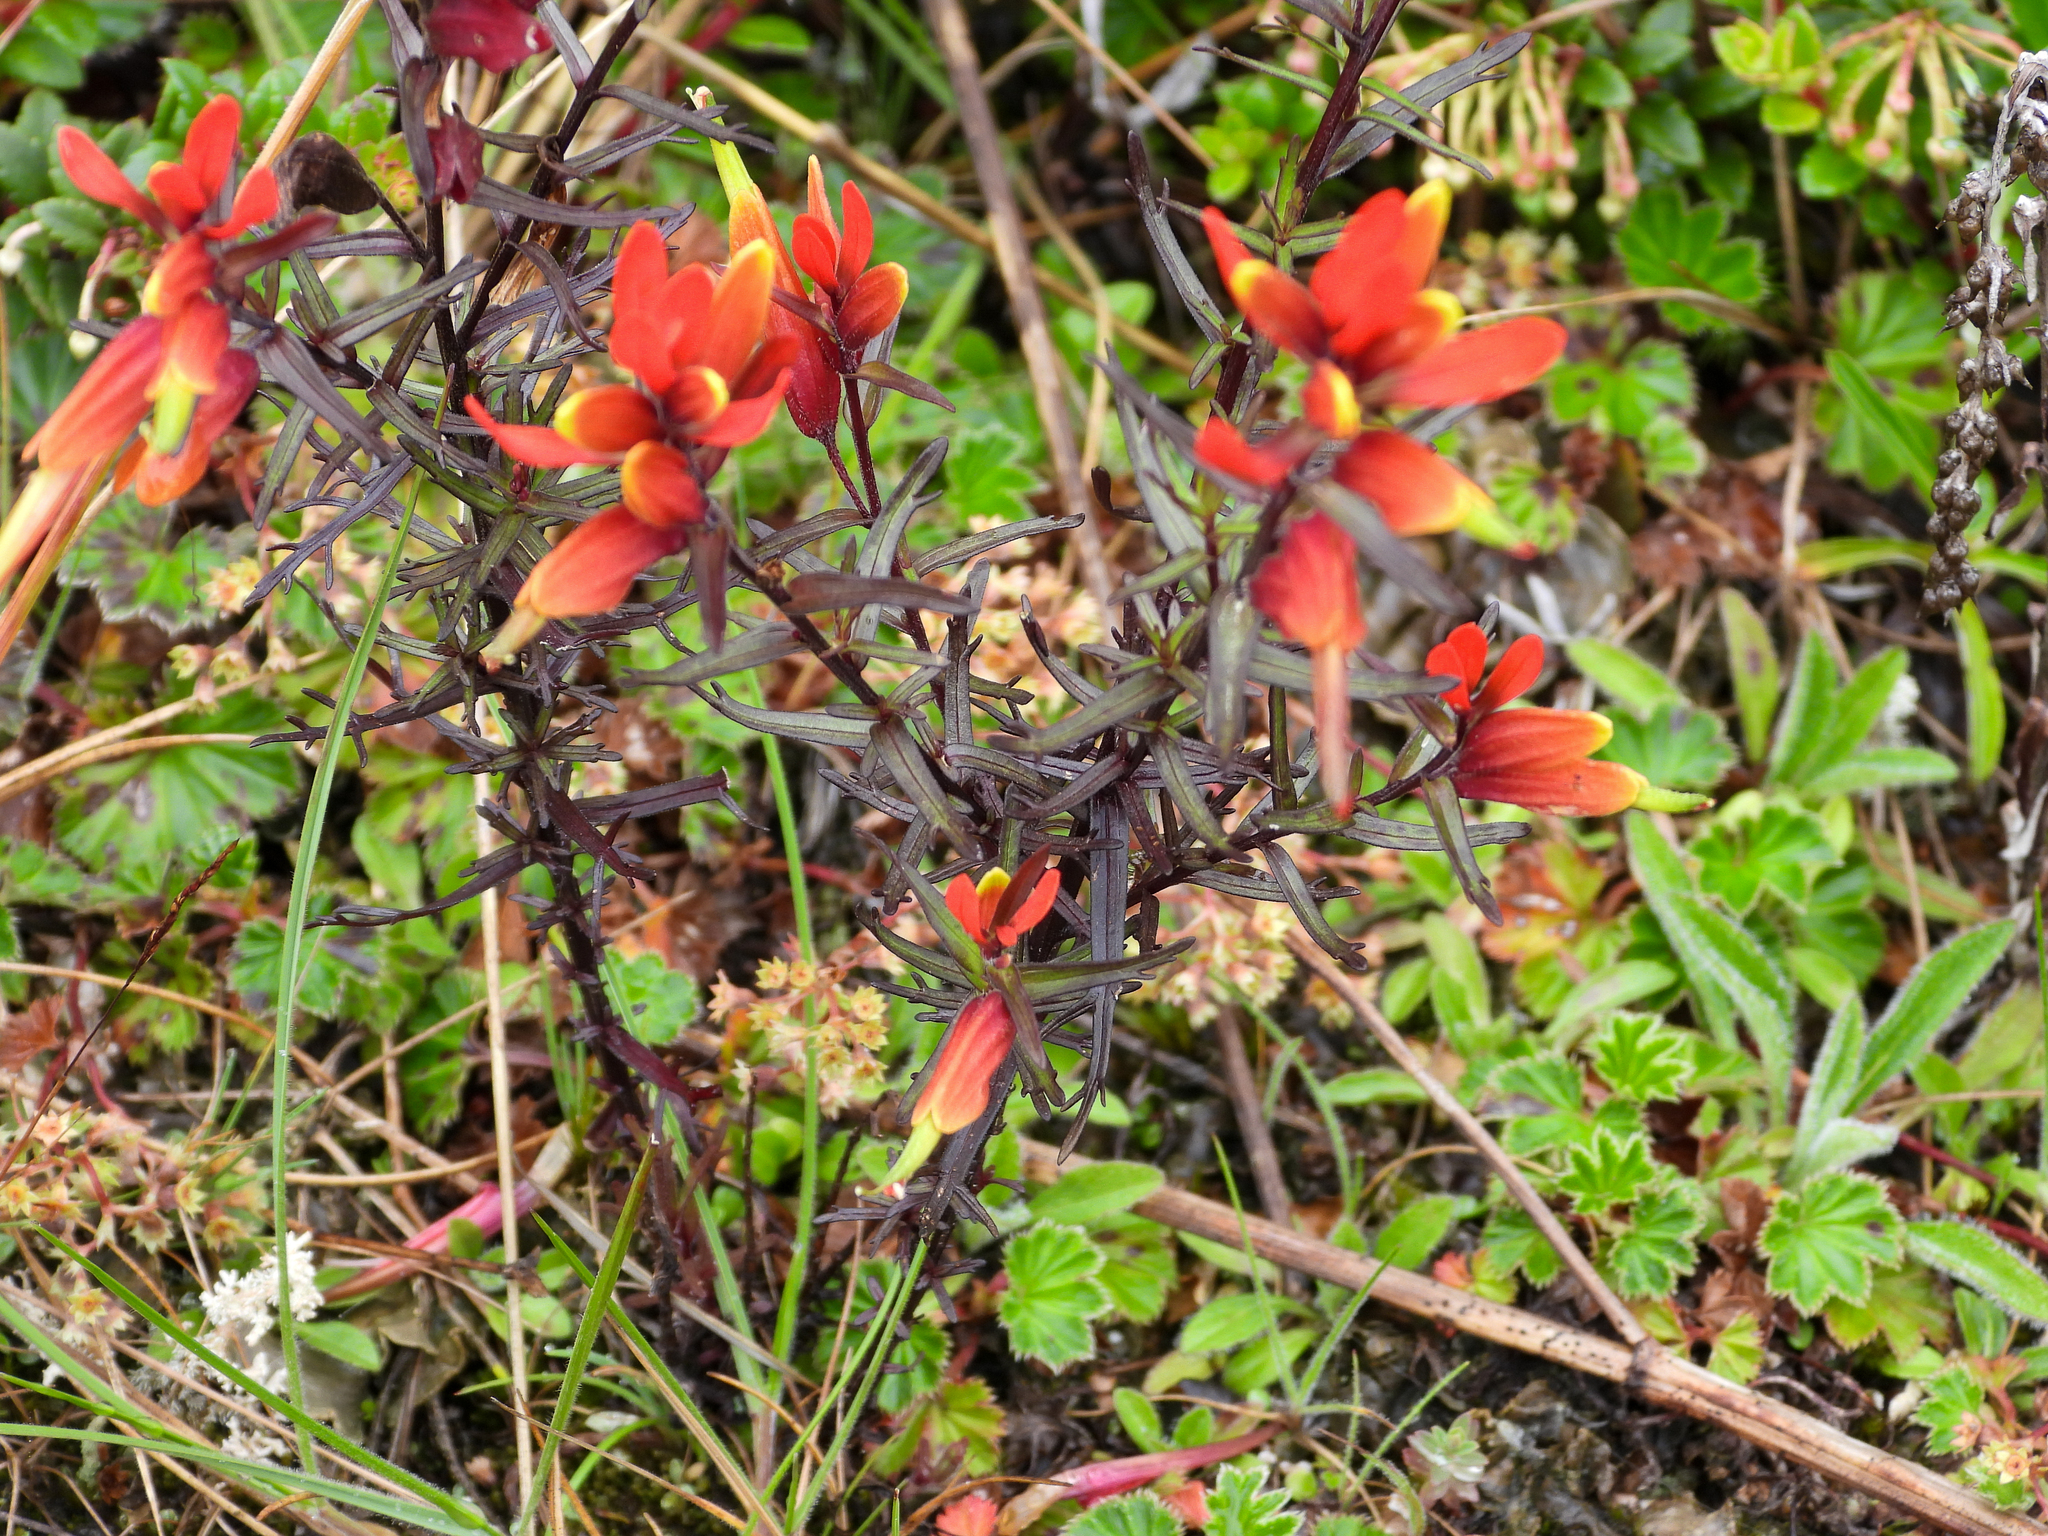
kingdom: Plantae
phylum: Tracheophyta
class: Magnoliopsida
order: Lamiales
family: Orobanchaceae
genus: Castilleja
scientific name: Castilleja talamancensis
